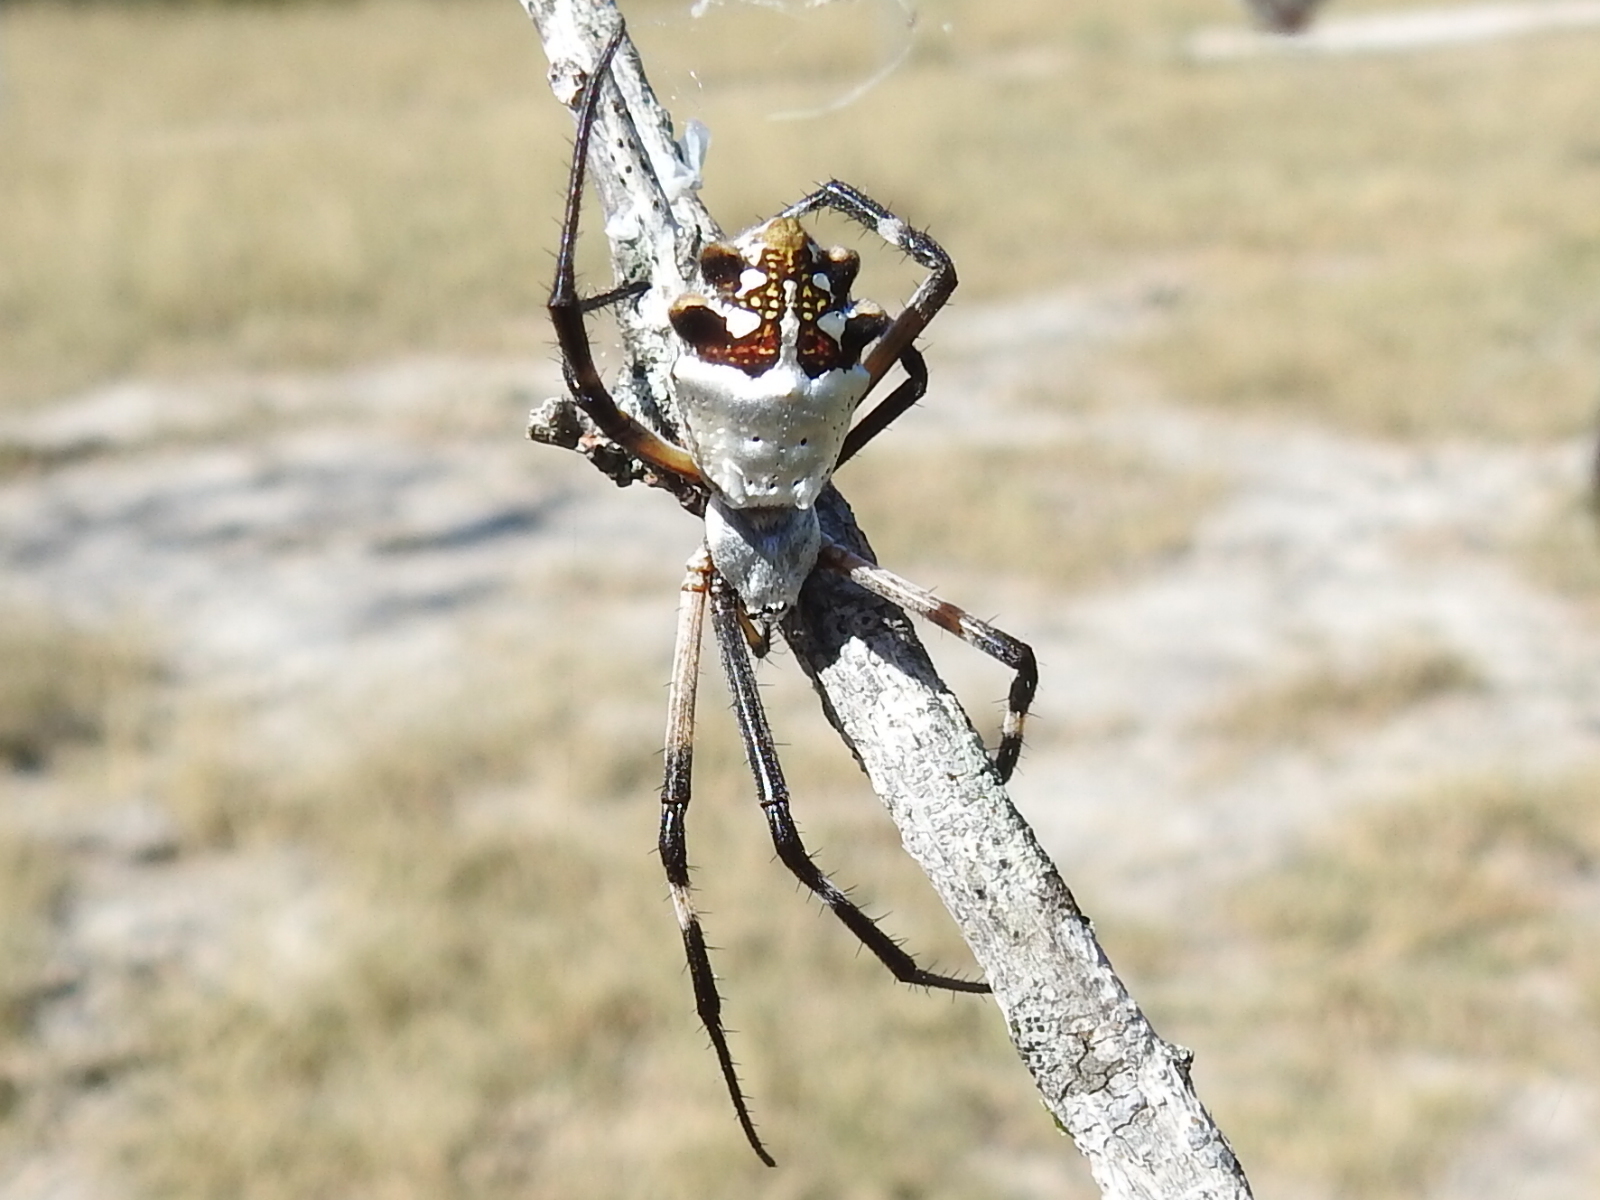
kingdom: Animalia
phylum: Arthropoda
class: Arachnida
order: Araneae
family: Araneidae
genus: Argiope
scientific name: Argiope argentata
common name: Orb weavers
